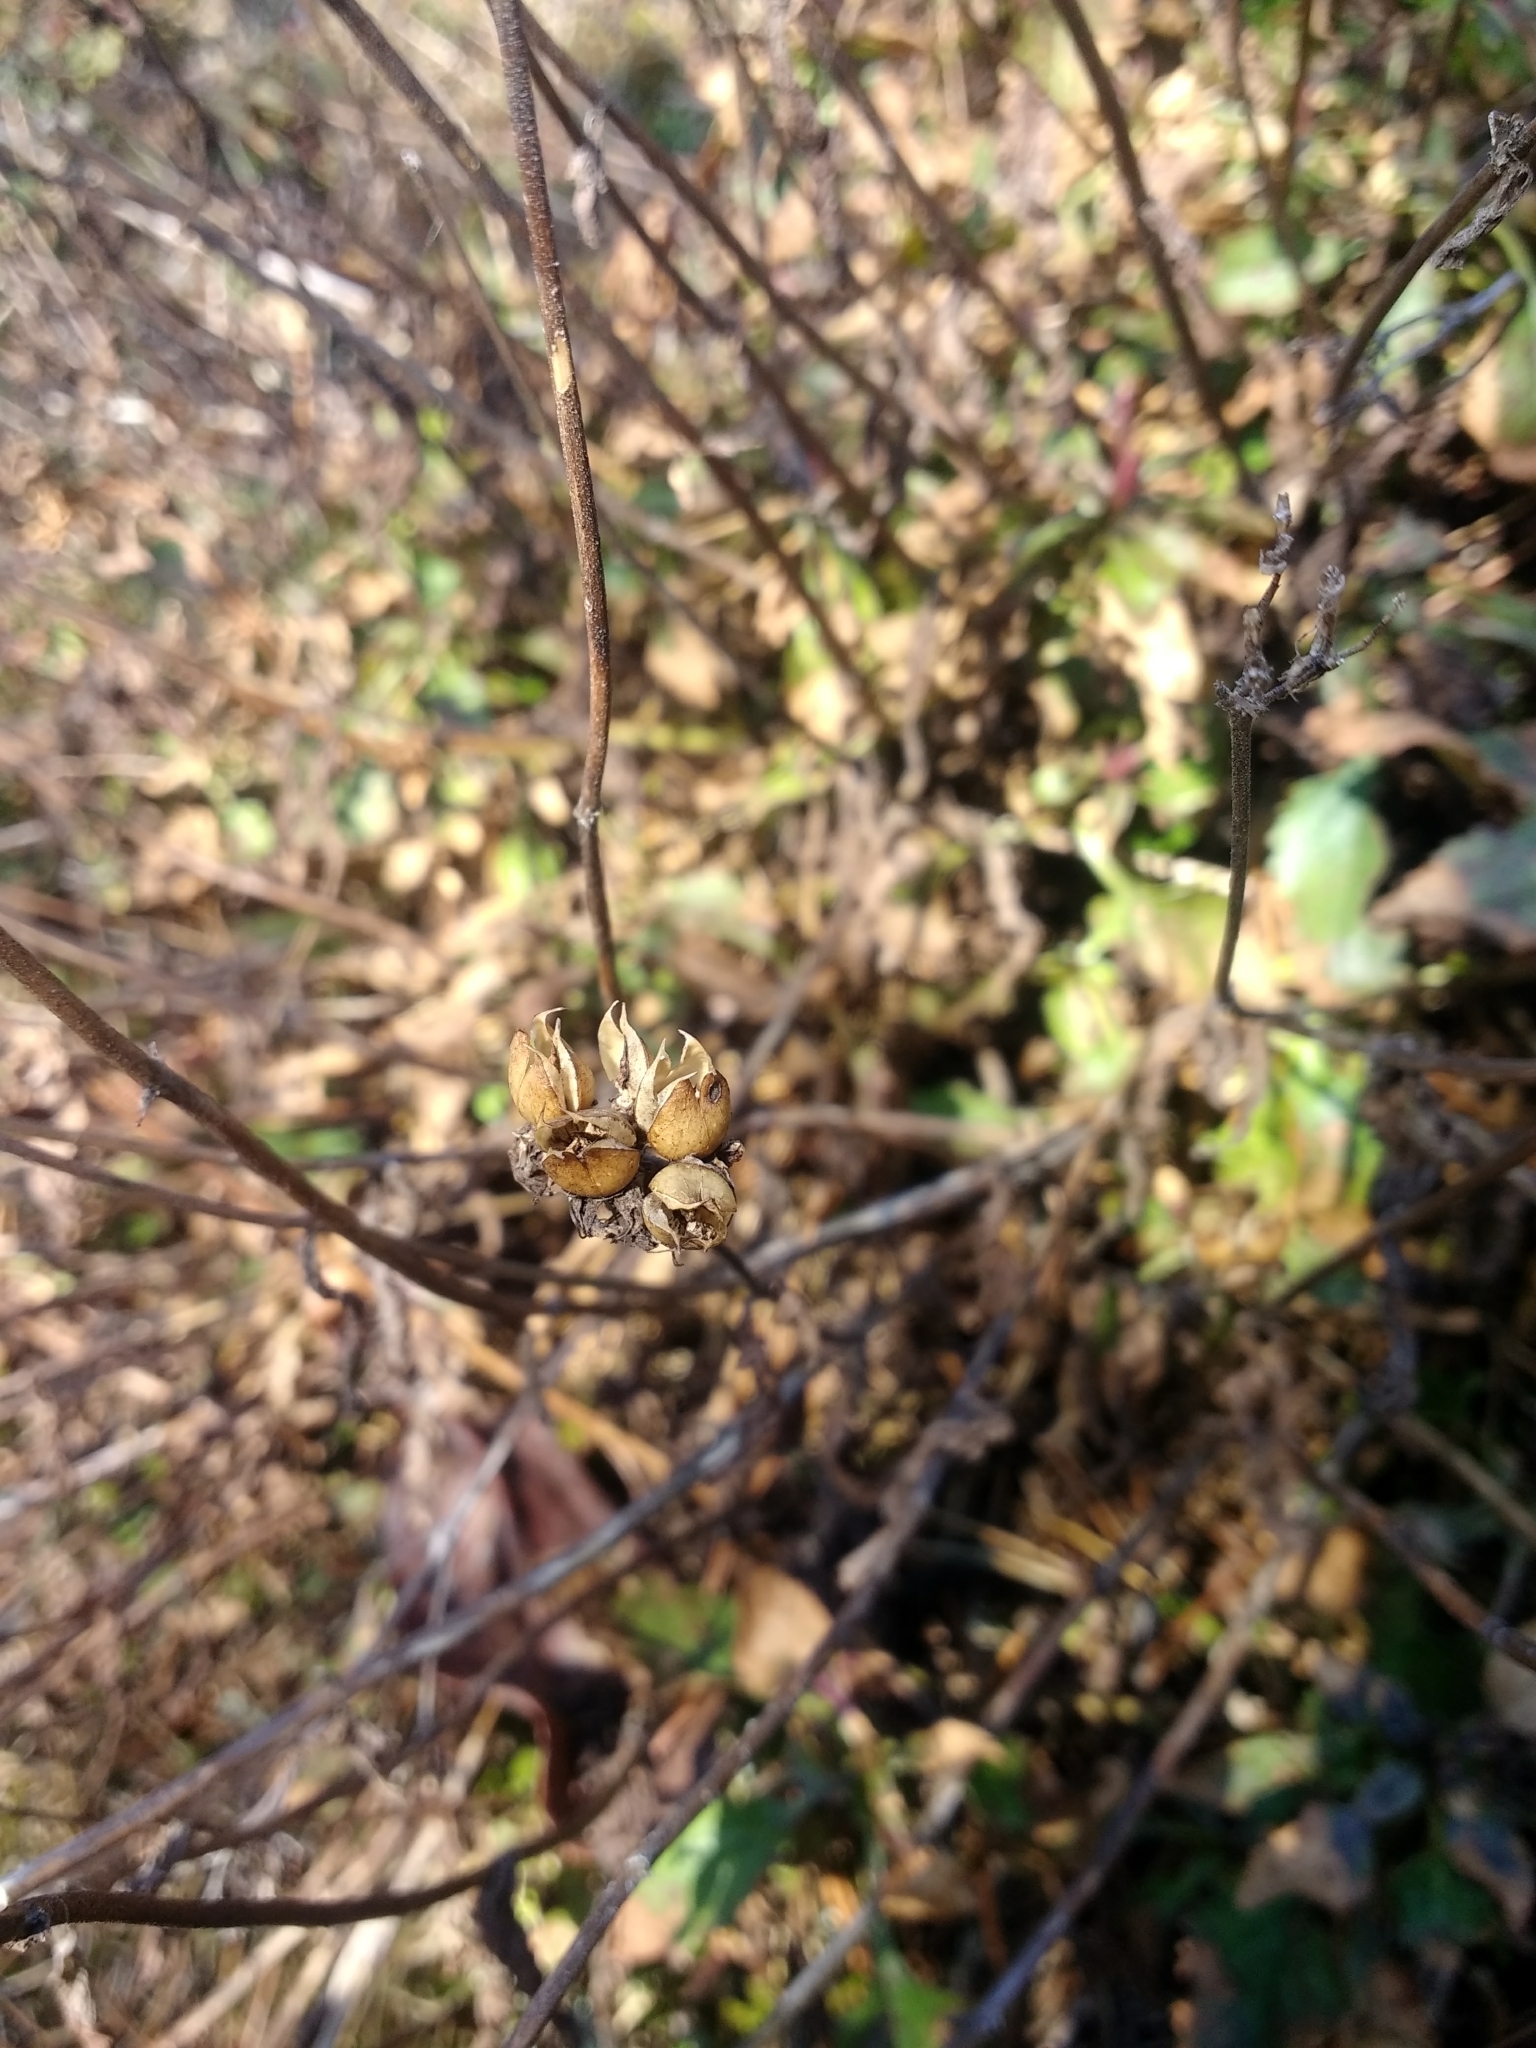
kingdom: Plantae
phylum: Tracheophyta
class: Magnoliopsida
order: Lamiales
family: Plantaginaceae
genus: Penstemon
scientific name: Penstemon serrulatus
